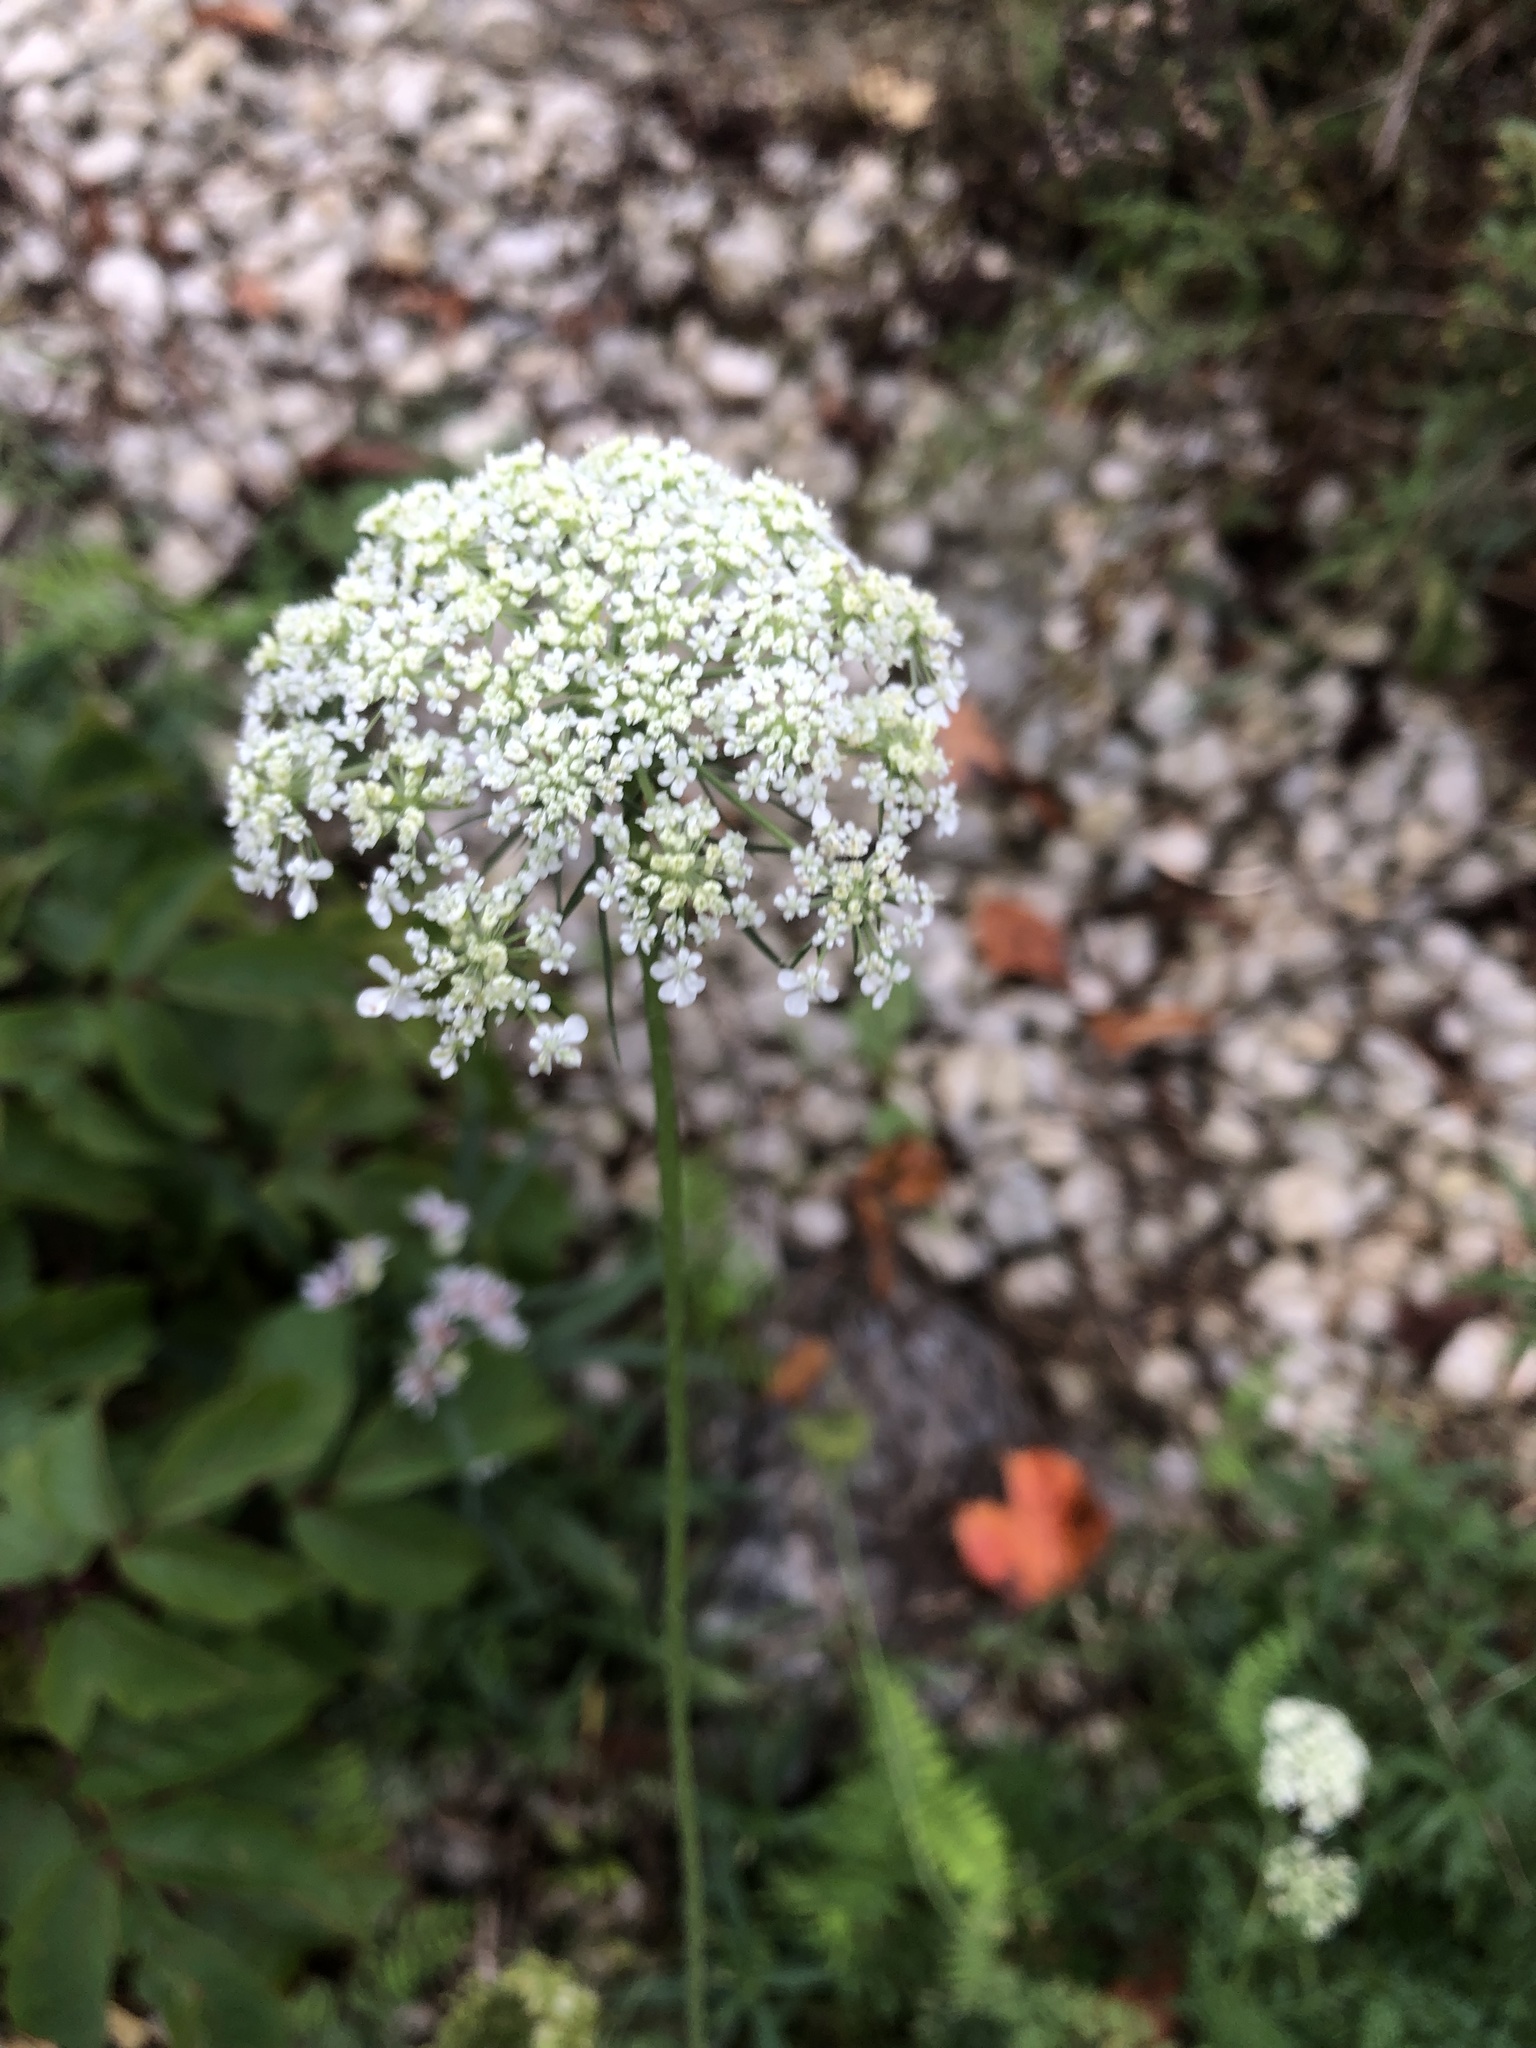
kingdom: Plantae
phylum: Tracheophyta
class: Magnoliopsida
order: Apiales
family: Apiaceae
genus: Daucus
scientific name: Daucus carota
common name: Wild carrot
